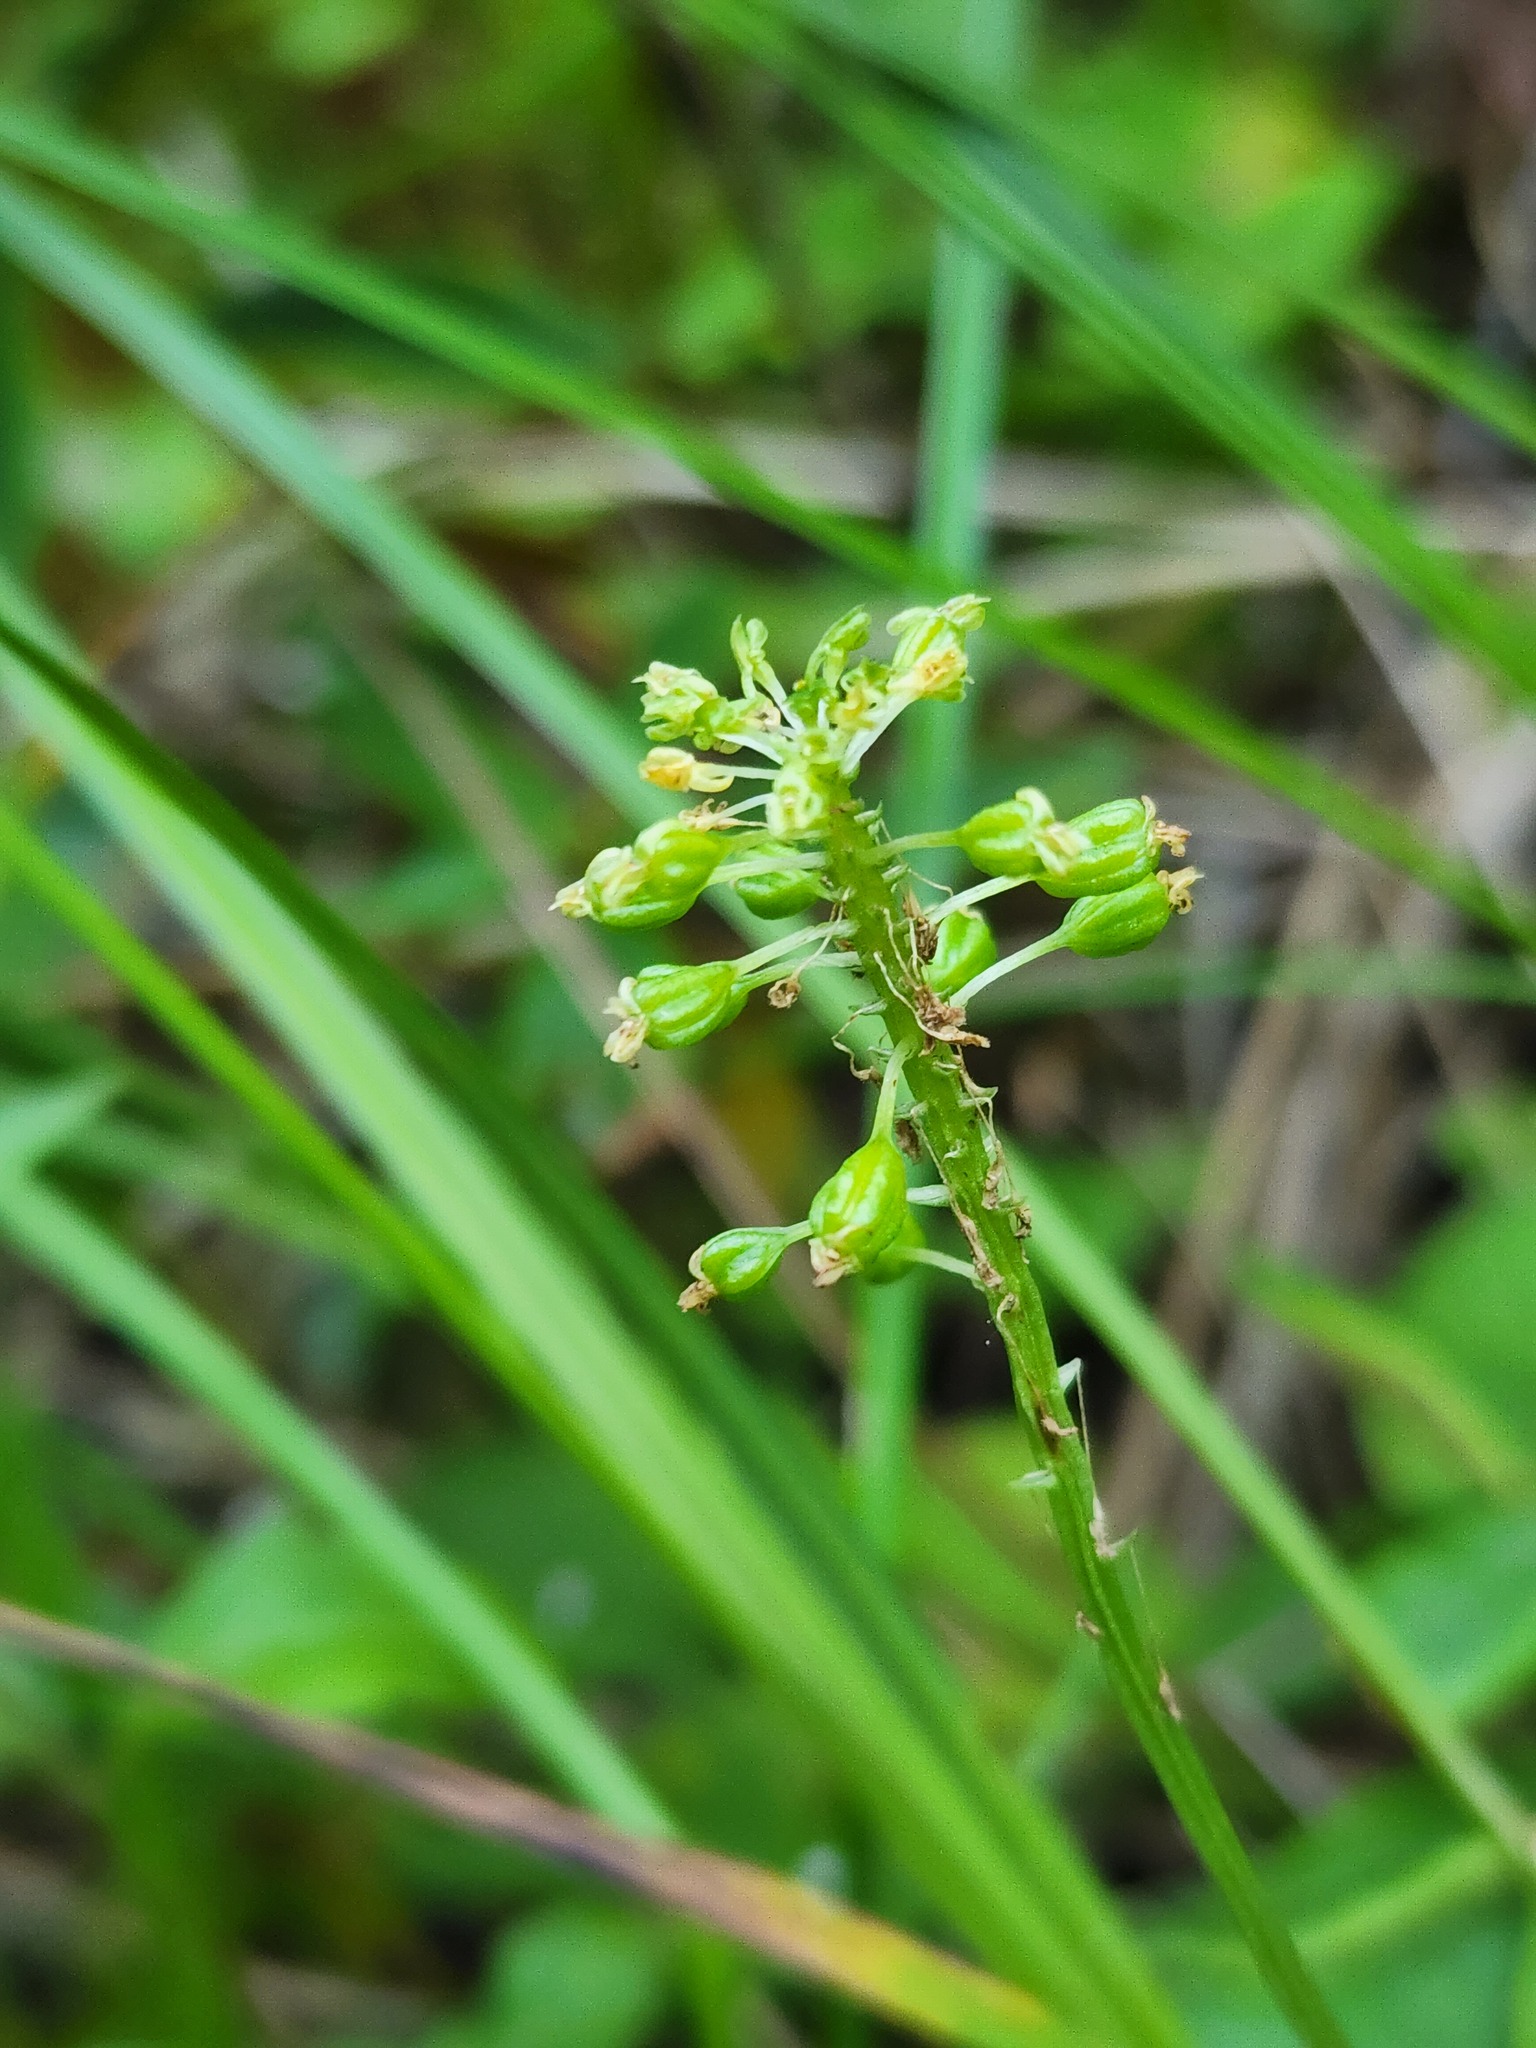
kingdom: Plantae
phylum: Tracheophyta
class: Liliopsida
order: Asparagales
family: Orchidaceae
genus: Malaxis
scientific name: Malaxis unifolia
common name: Green adder's-mouth
